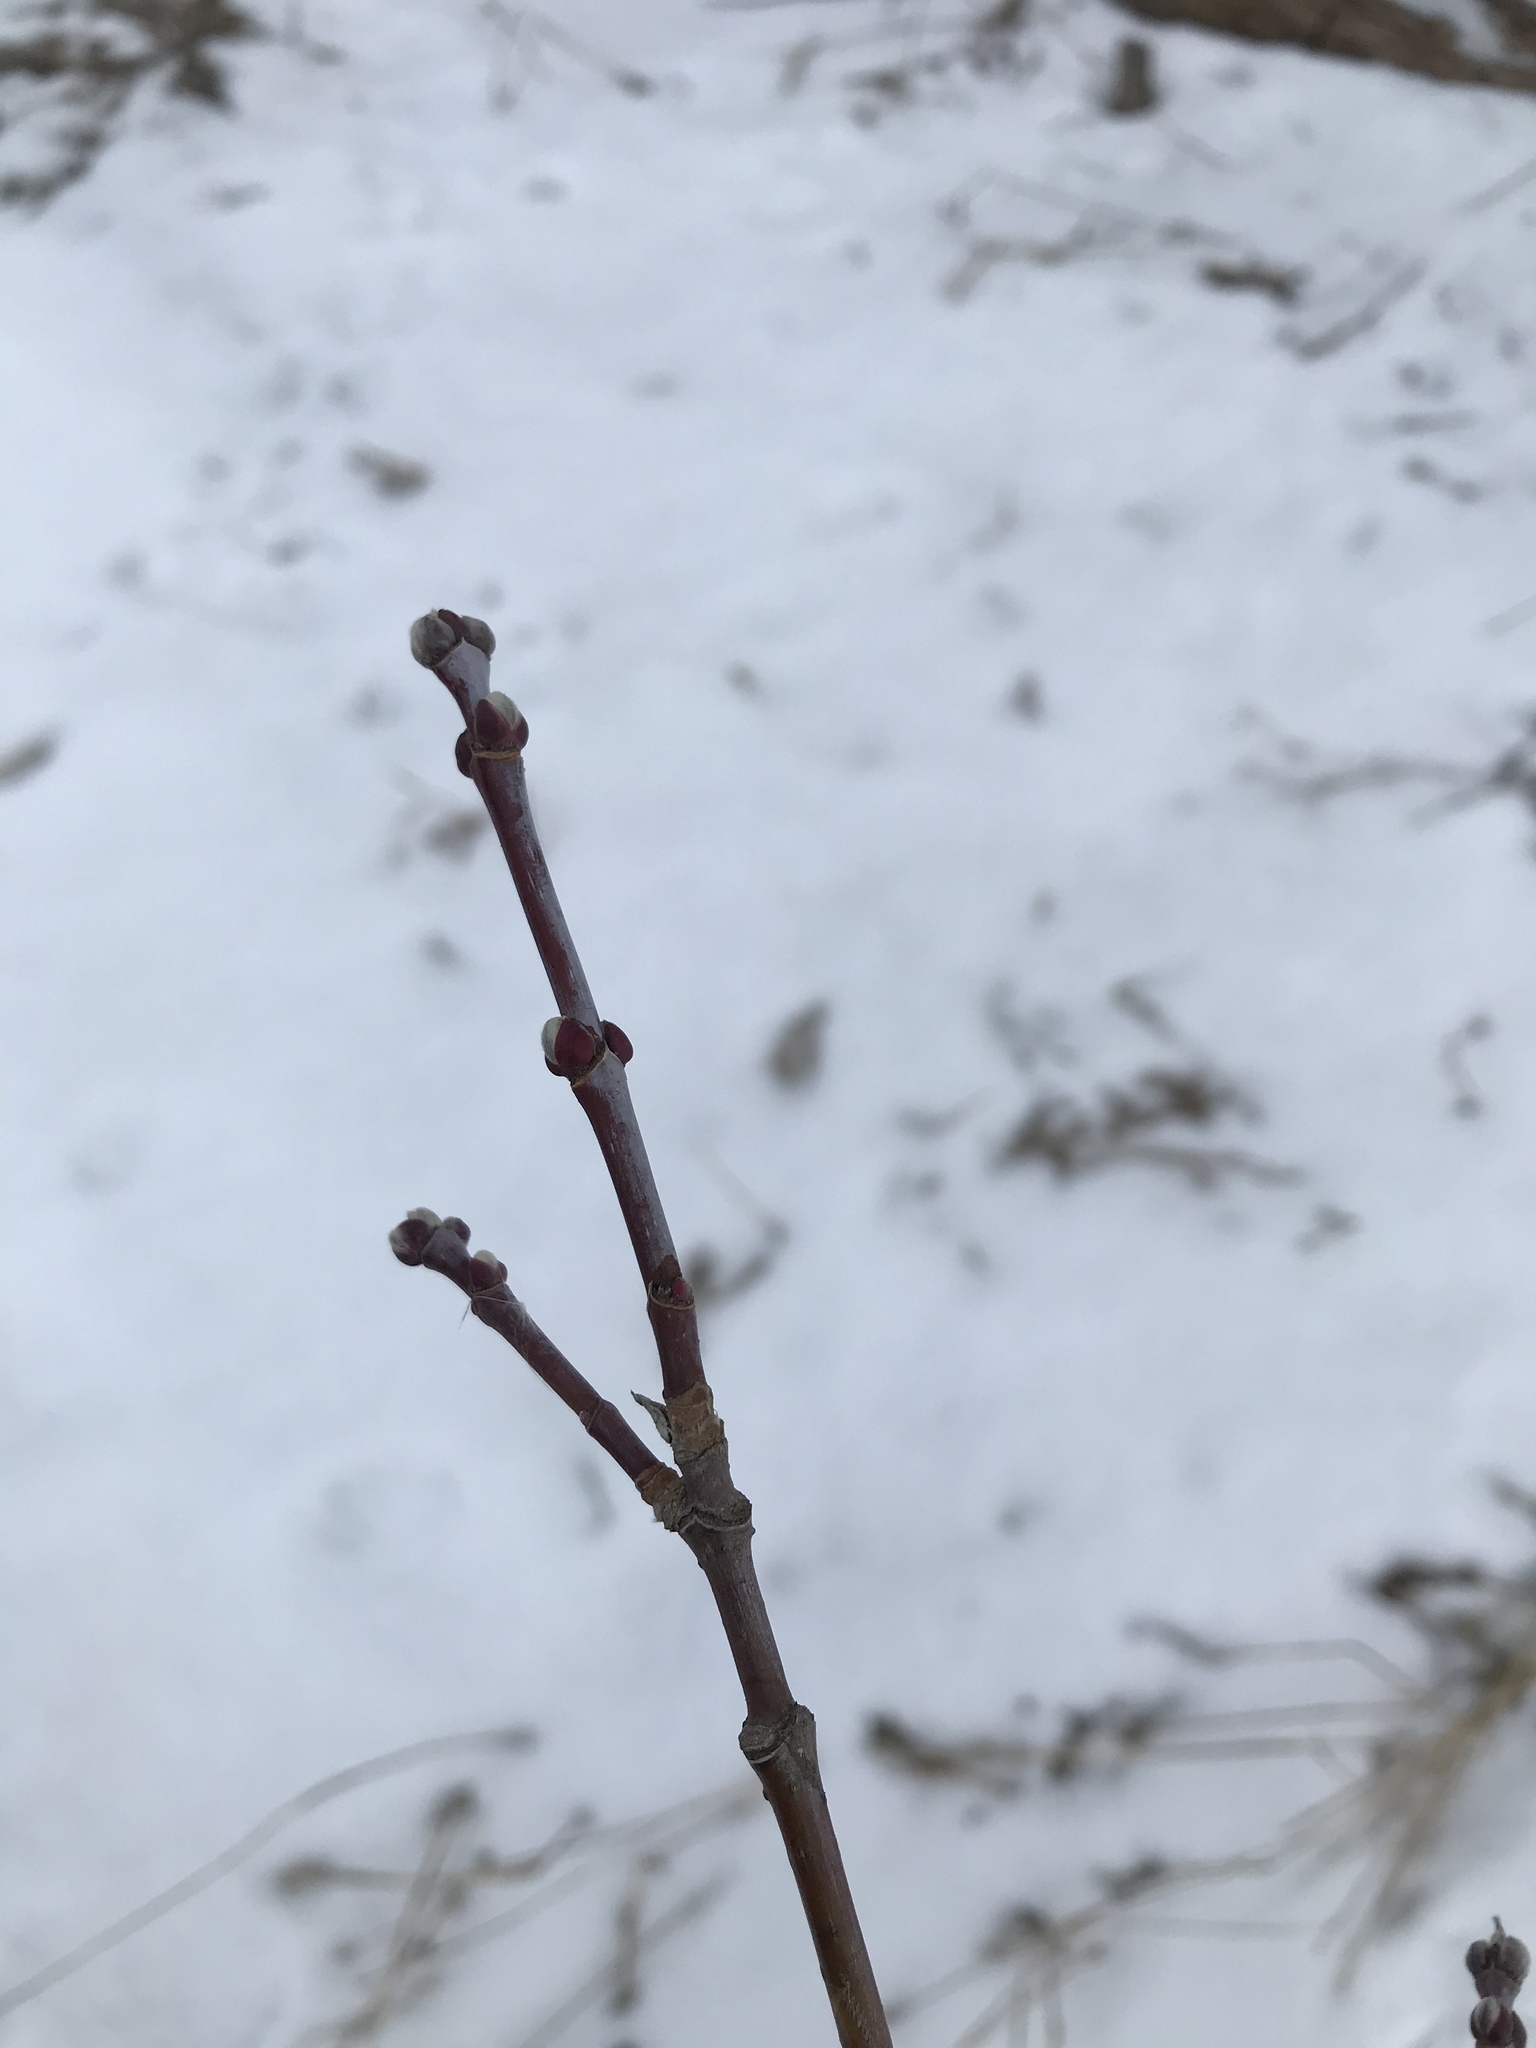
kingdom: Plantae
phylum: Tracheophyta
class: Magnoliopsida
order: Sapindales
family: Sapindaceae
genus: Acer
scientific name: Acer negundo
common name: Ashleaf maple
